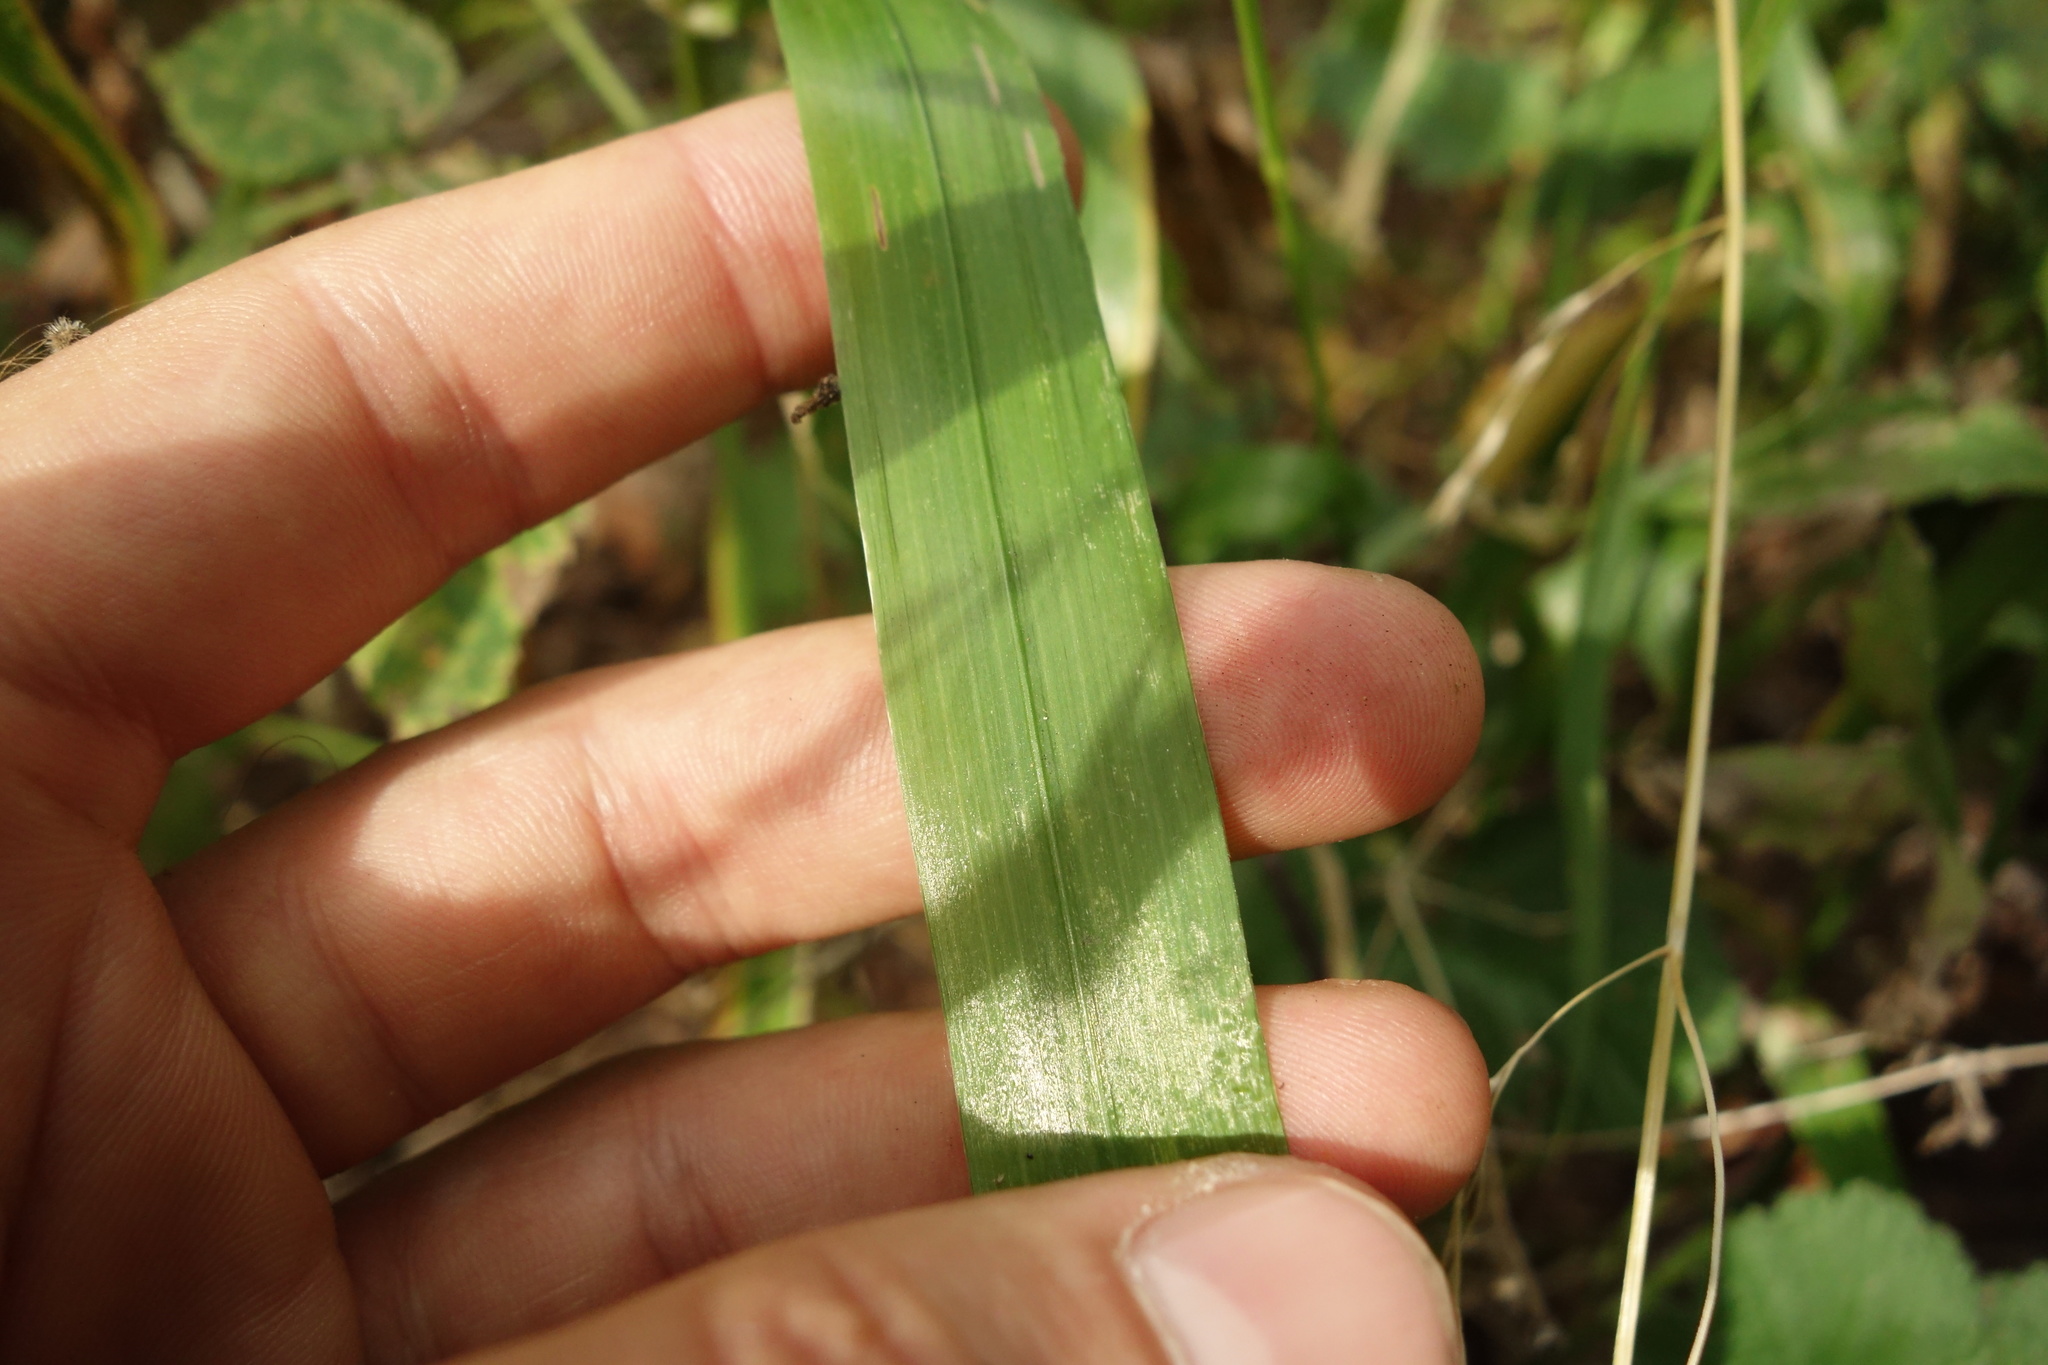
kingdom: Plantae
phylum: Tracheophyta
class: Liliopsida
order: Poales
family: Poaceae
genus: Lolium
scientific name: Lolium giganteum
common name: Giant fescue
